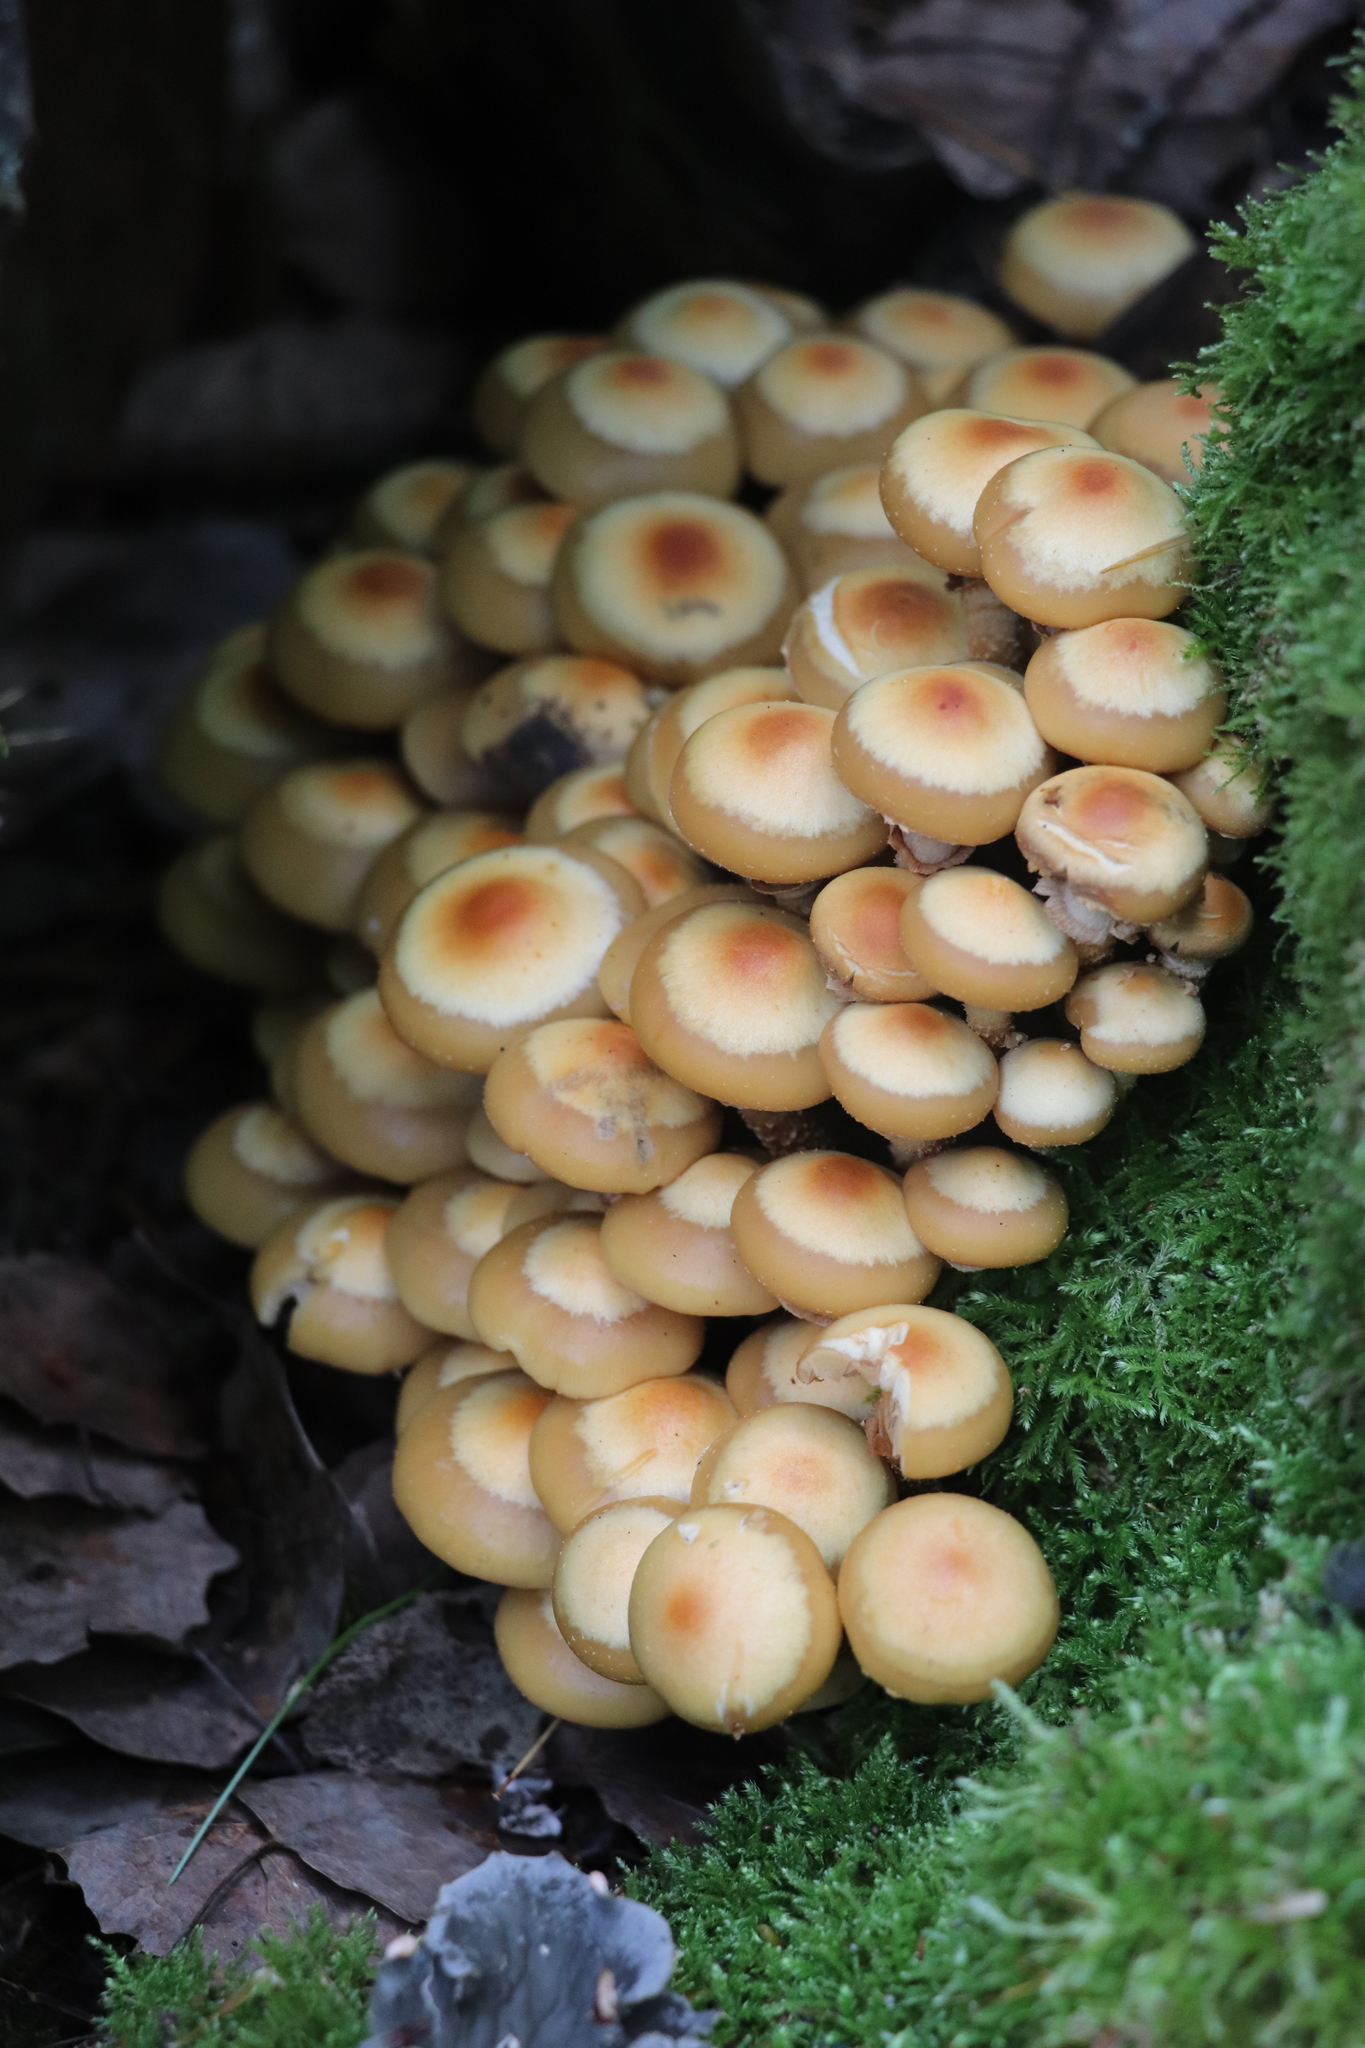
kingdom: Fungi
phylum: Basidiomycota
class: Agaricomycetes
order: Agaricales
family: Strophariaceae
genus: Kuehneromyces
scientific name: Kuehneromyces mutabilis
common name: Sheathed woodtuft
